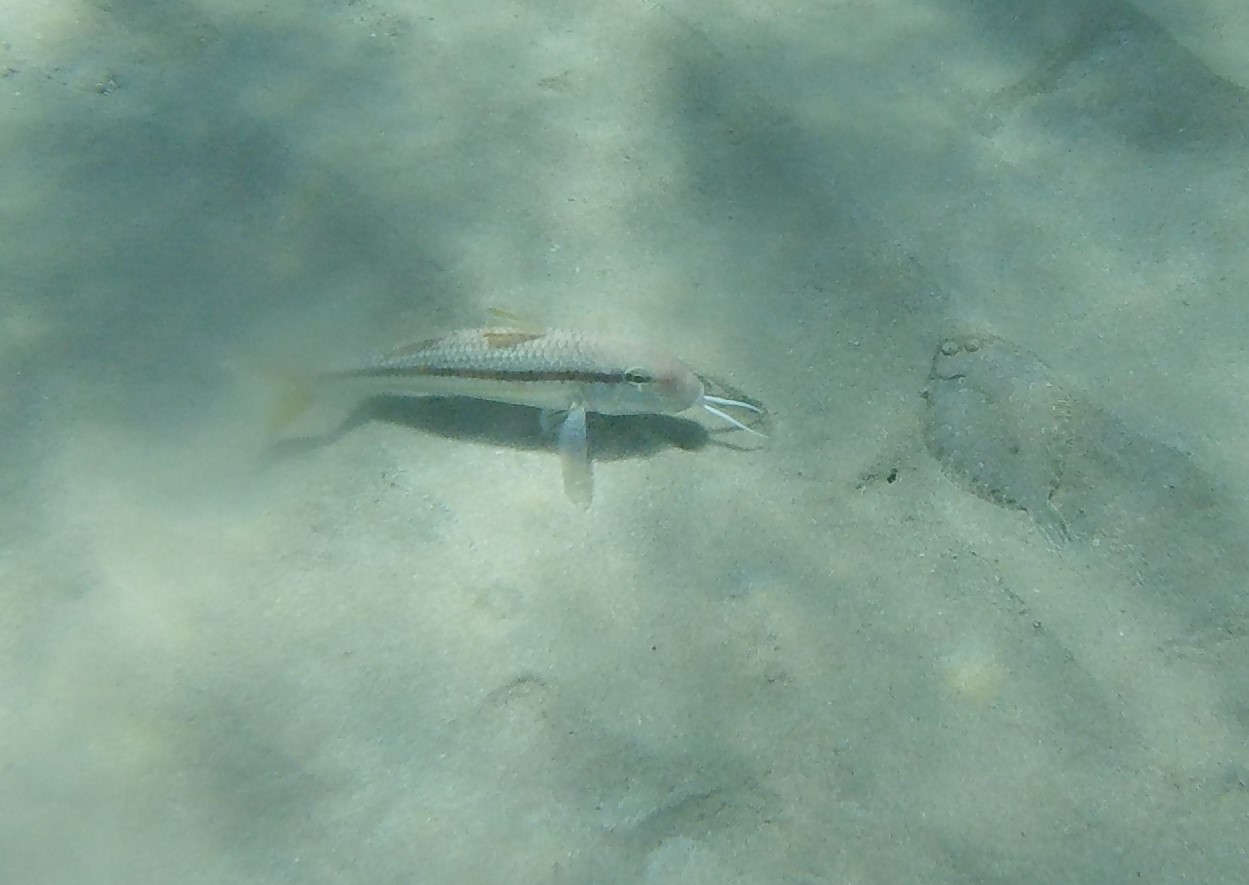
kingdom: Animalia
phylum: Chordata
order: Perciformes
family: Mullidae
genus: Mullus
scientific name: Mullus
